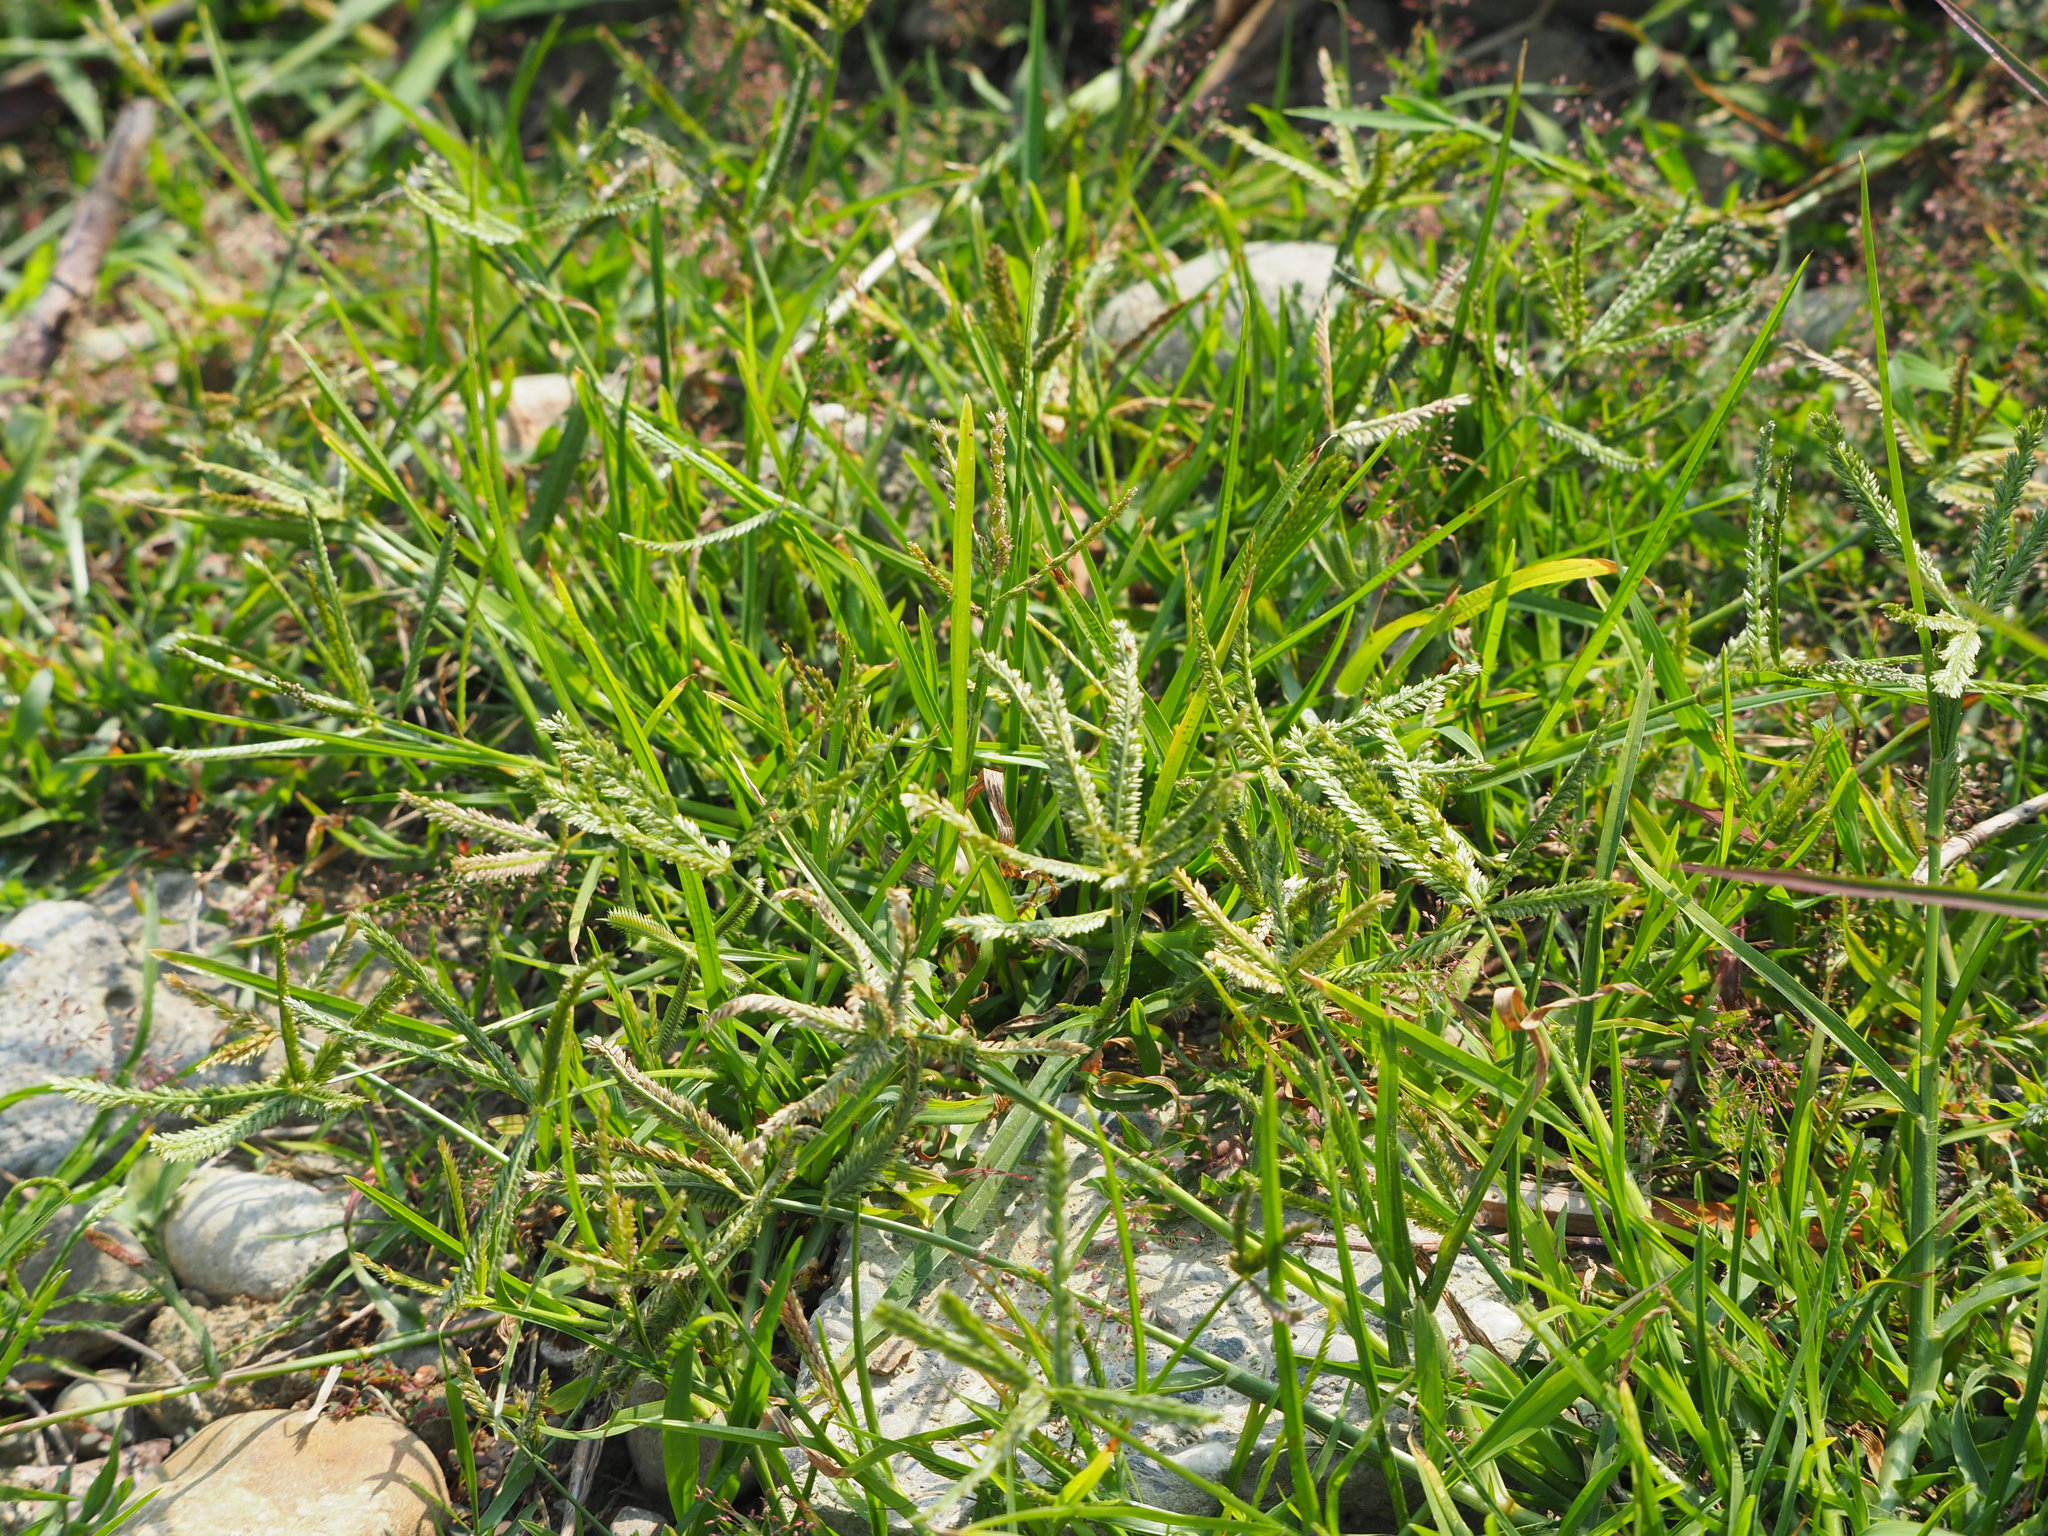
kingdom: Plantae
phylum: Tracheophyta
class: Liliopsida
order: Poales
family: Poaceae
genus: Eleusine
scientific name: Eleusine indica
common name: Yard-grass
